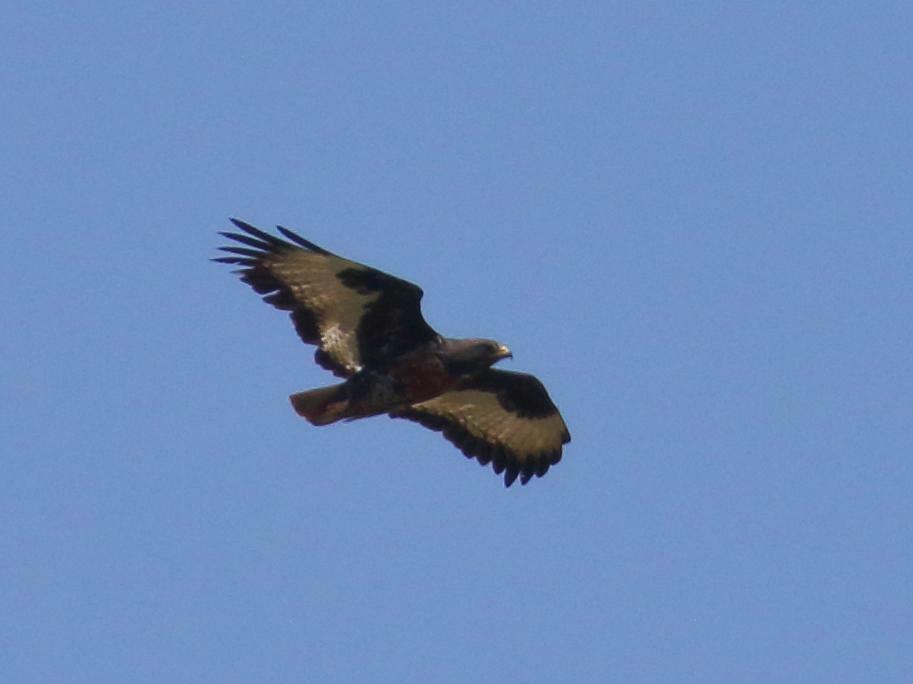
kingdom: Animalia
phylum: Chordata
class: Aves
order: Accipitriformes
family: Accipitridae
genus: Buteo
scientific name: Buteo rufofuscus
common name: Jackal buzzard
